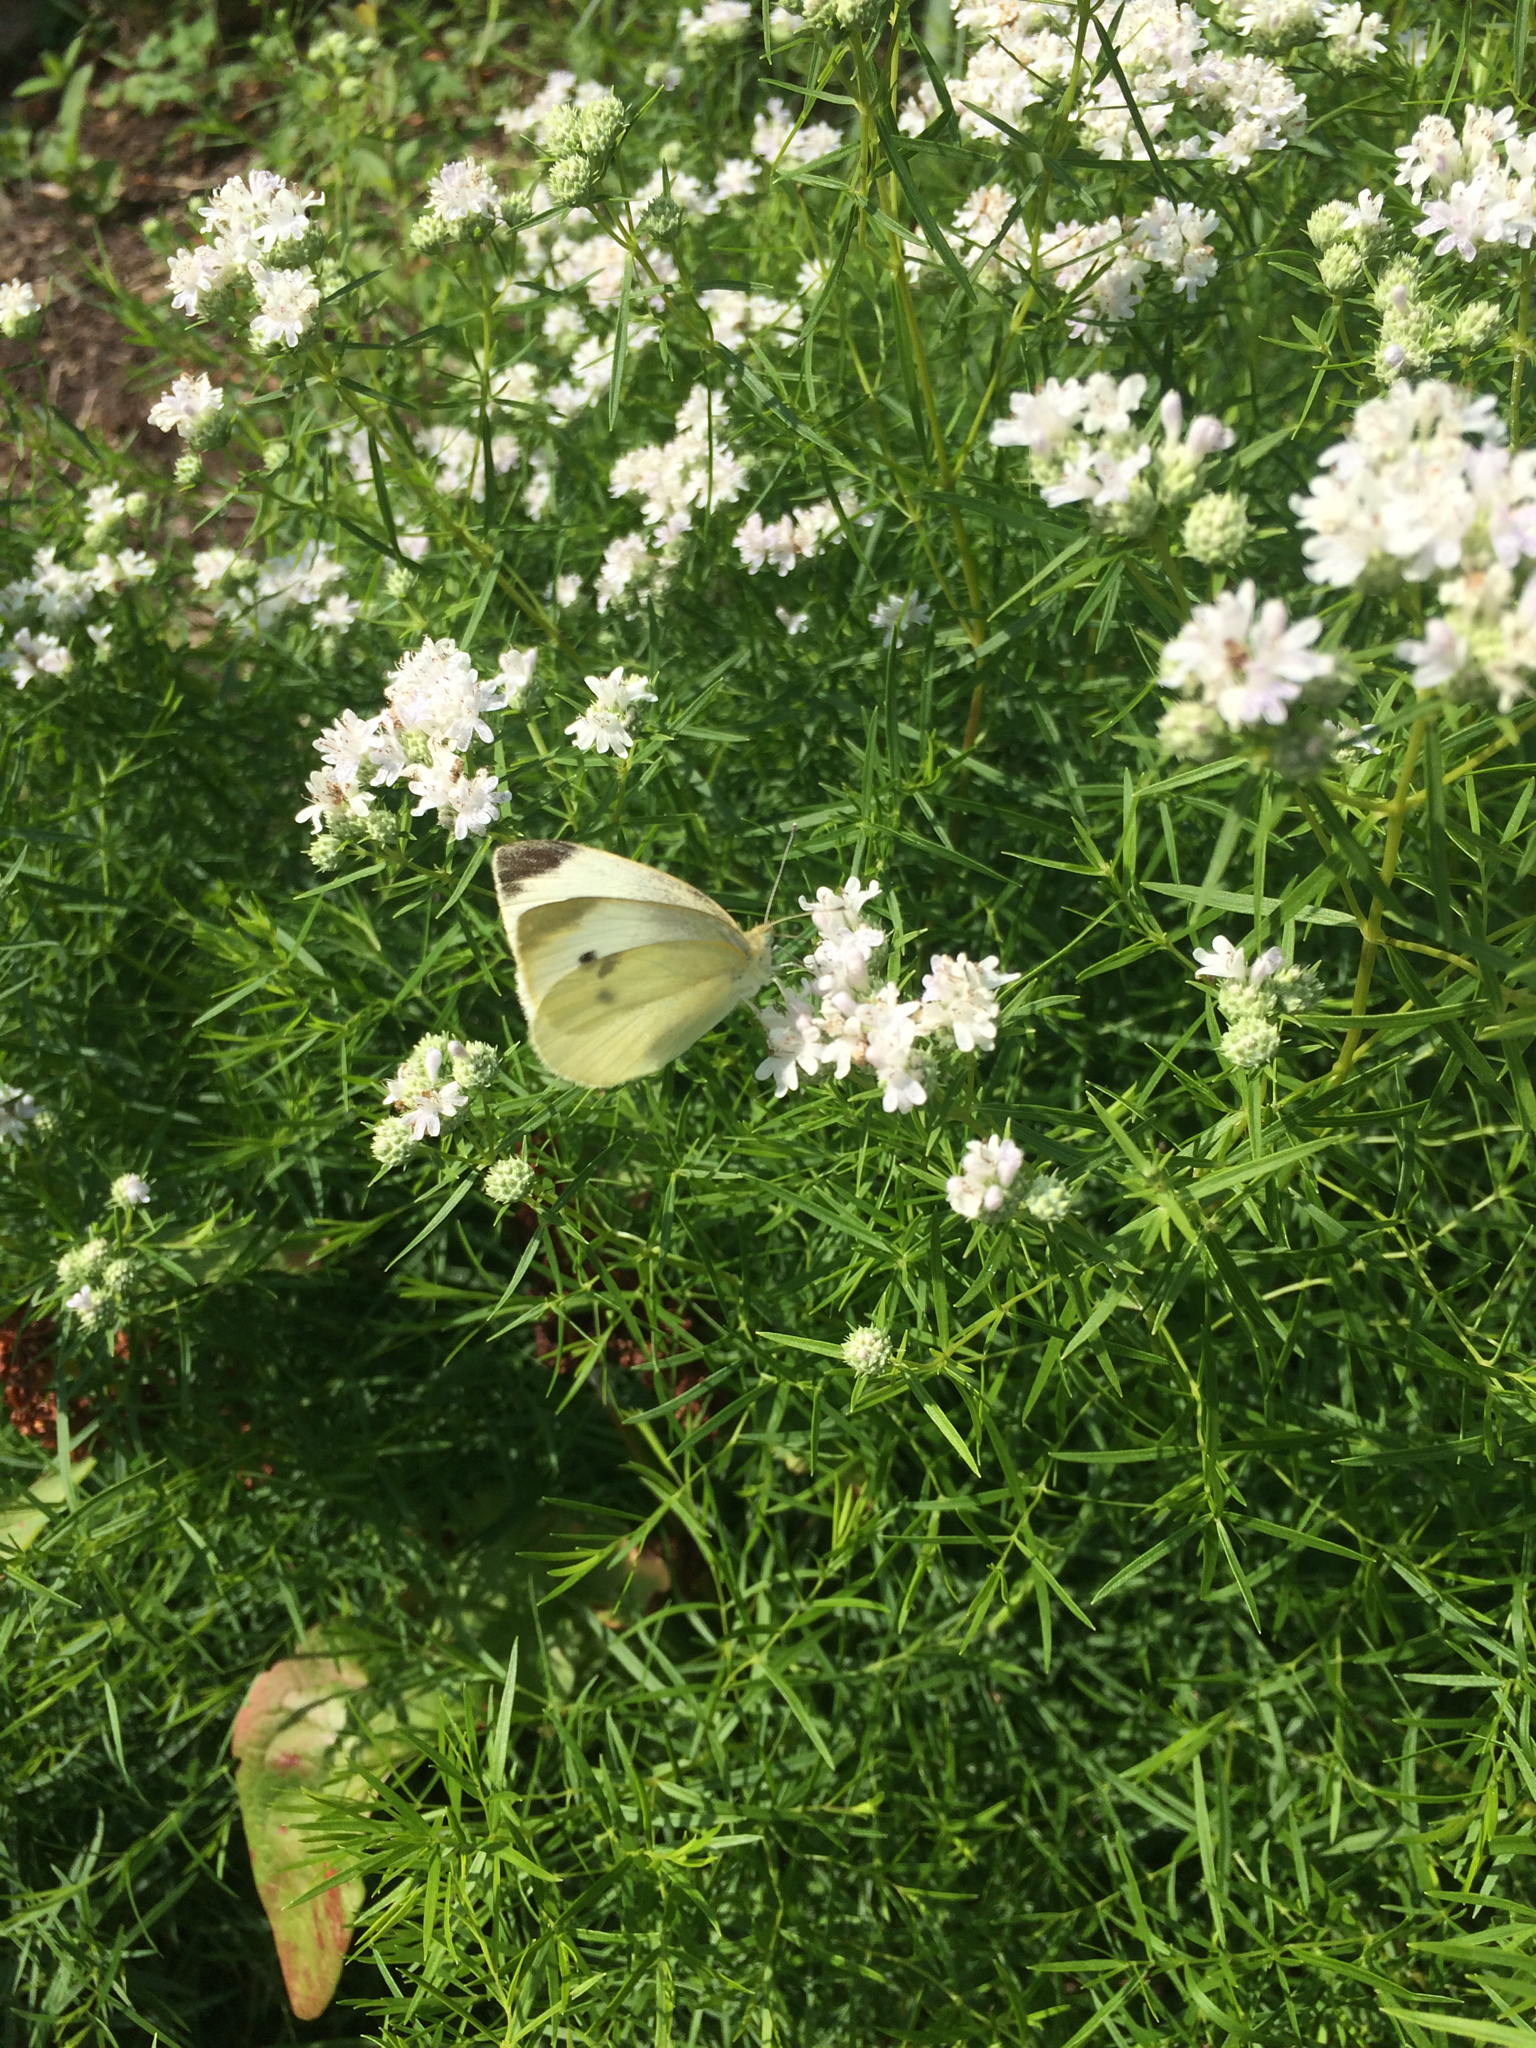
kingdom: Animalia
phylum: Arthropoda
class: Insecta
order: Lepidoptera
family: Pieridae
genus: Pieris
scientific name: Pieris rapae
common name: Small white
